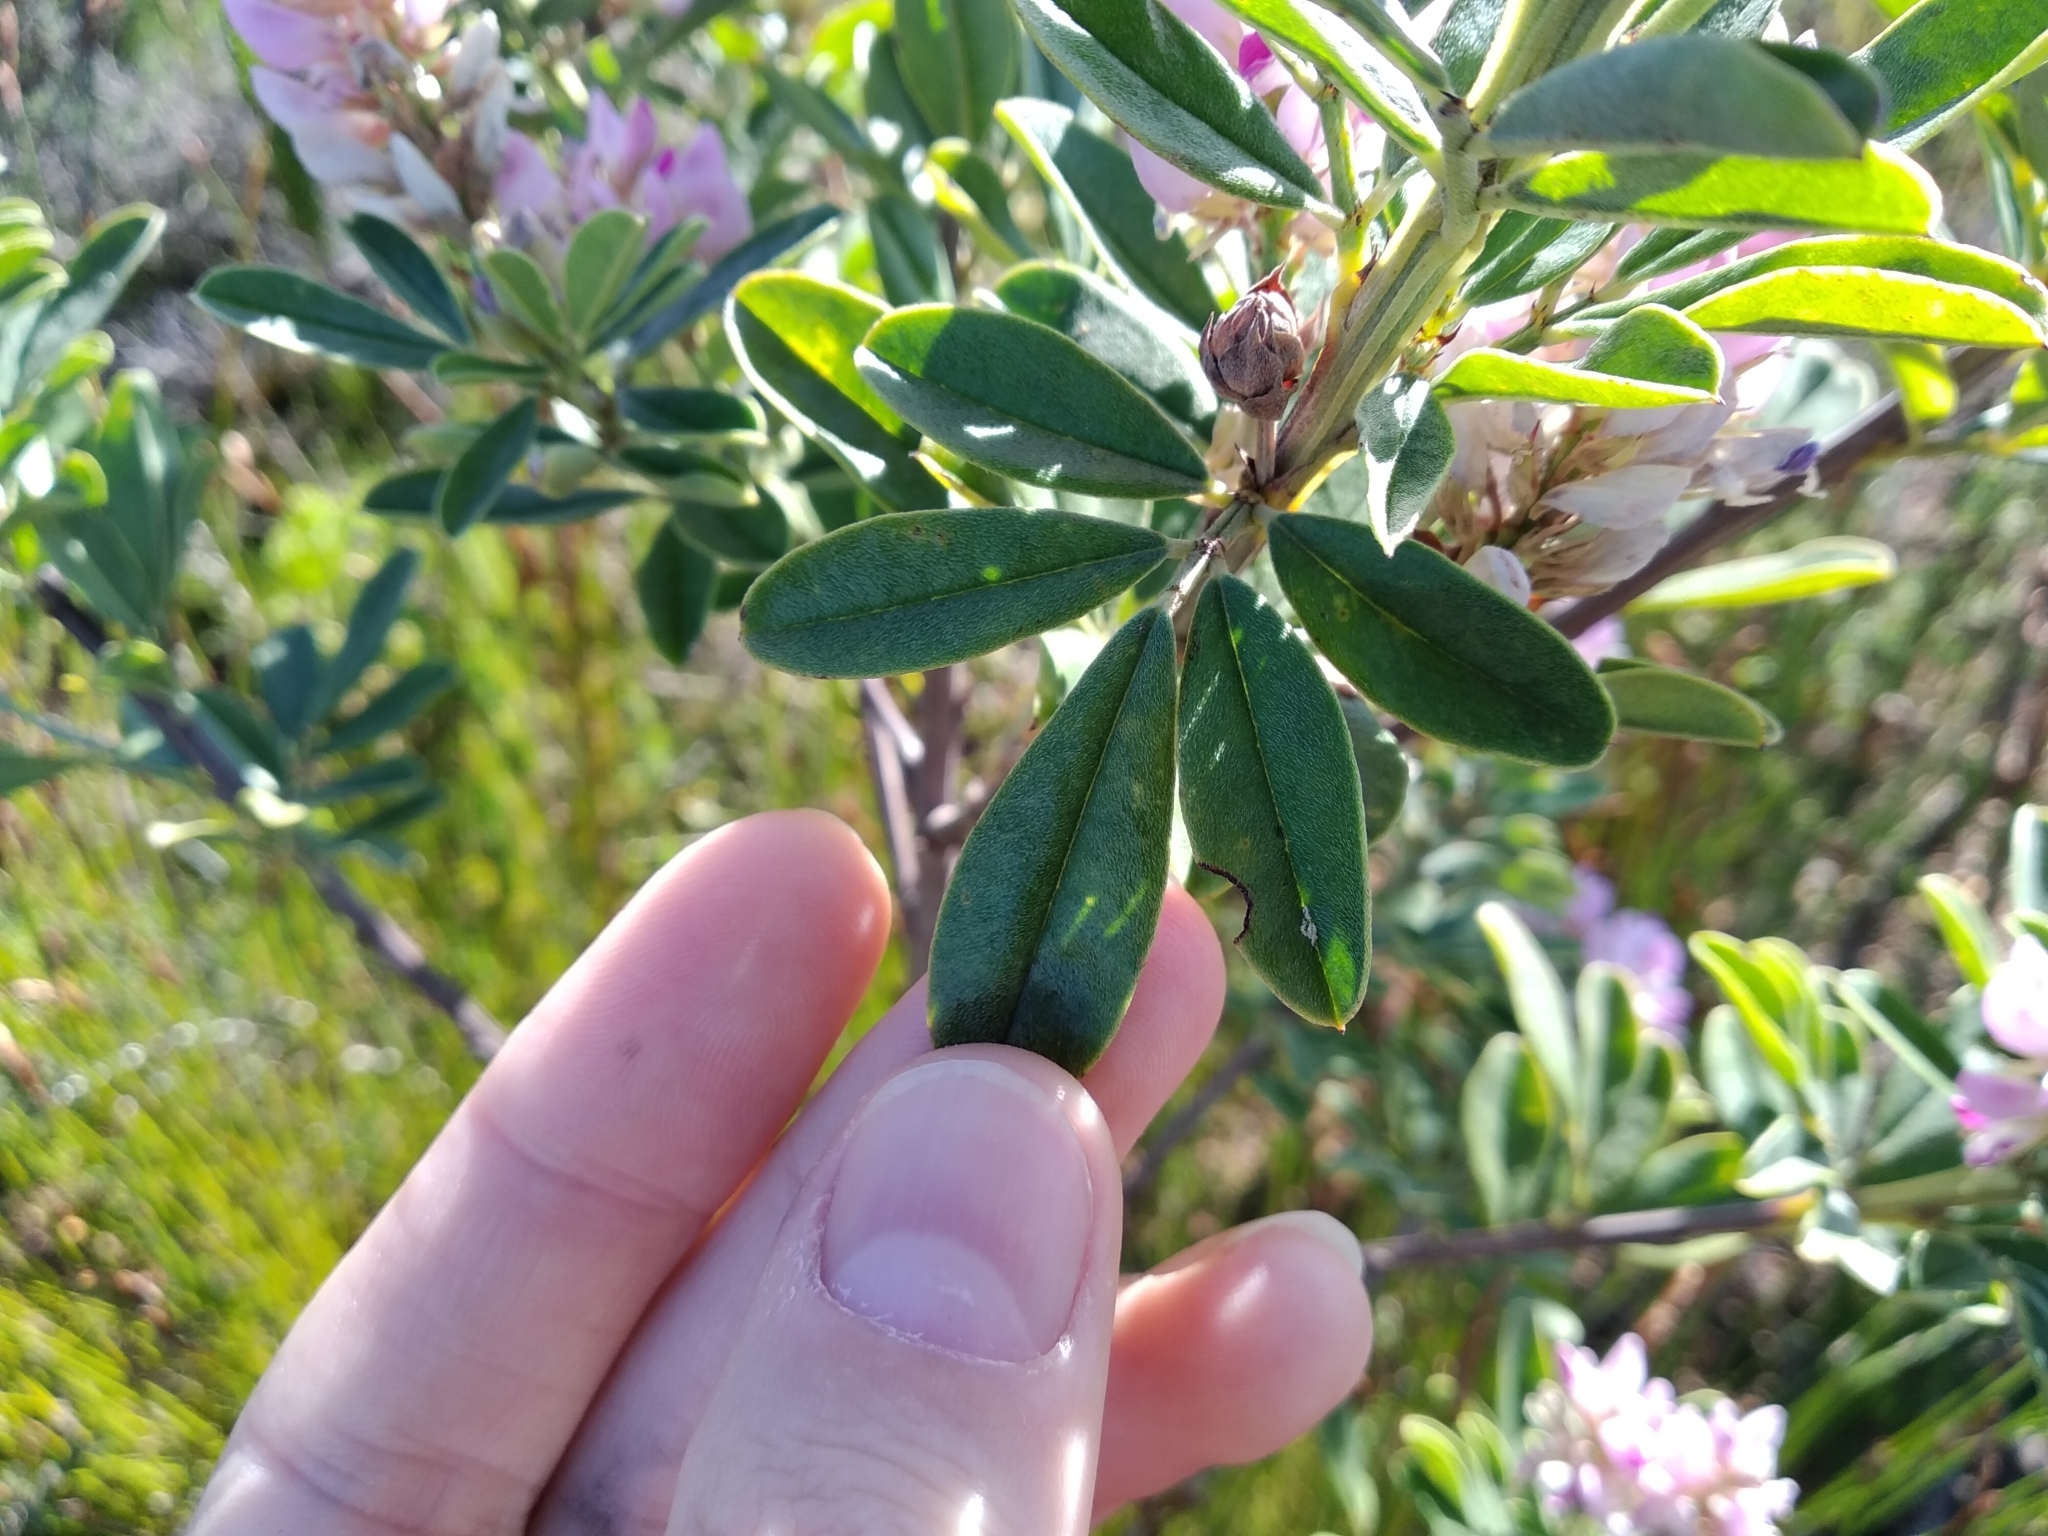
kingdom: Plantae
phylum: Tracheophyta
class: Magnoliopsida
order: Fabales
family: Fabaceae
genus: Indigofera
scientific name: Indigofera cytisoides
